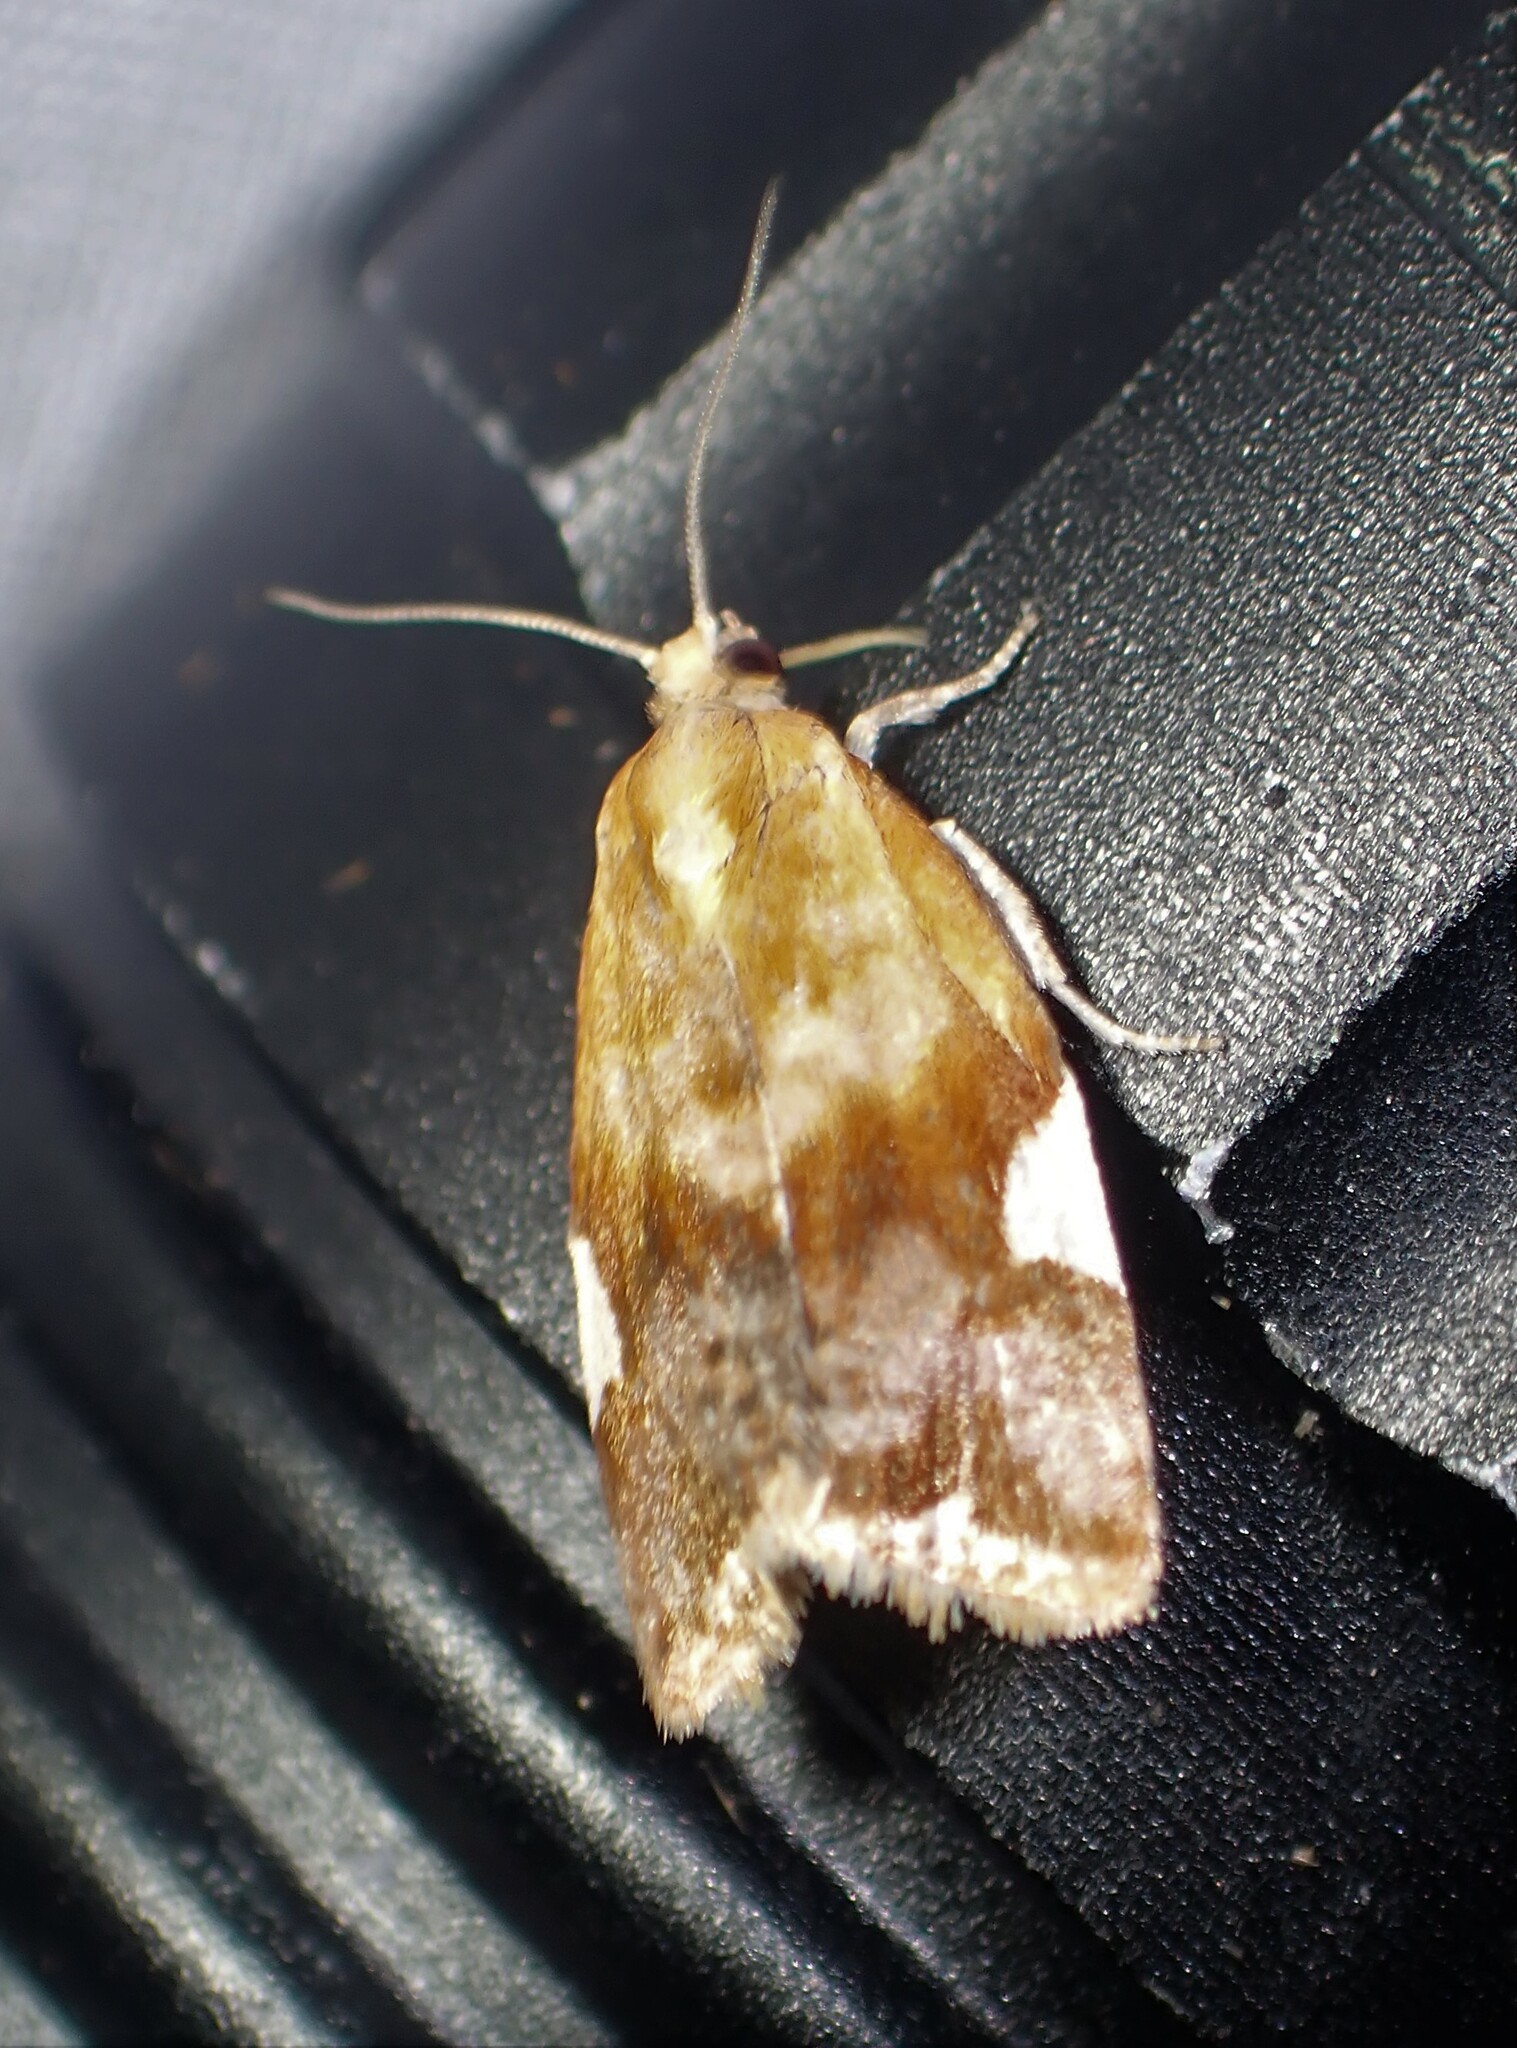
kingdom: Animalia
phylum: Arthropoda
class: Insecta
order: Lepidoptera
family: Tortricidae
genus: Clepsis
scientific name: Clepsis persicana
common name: White triangle tortrix
